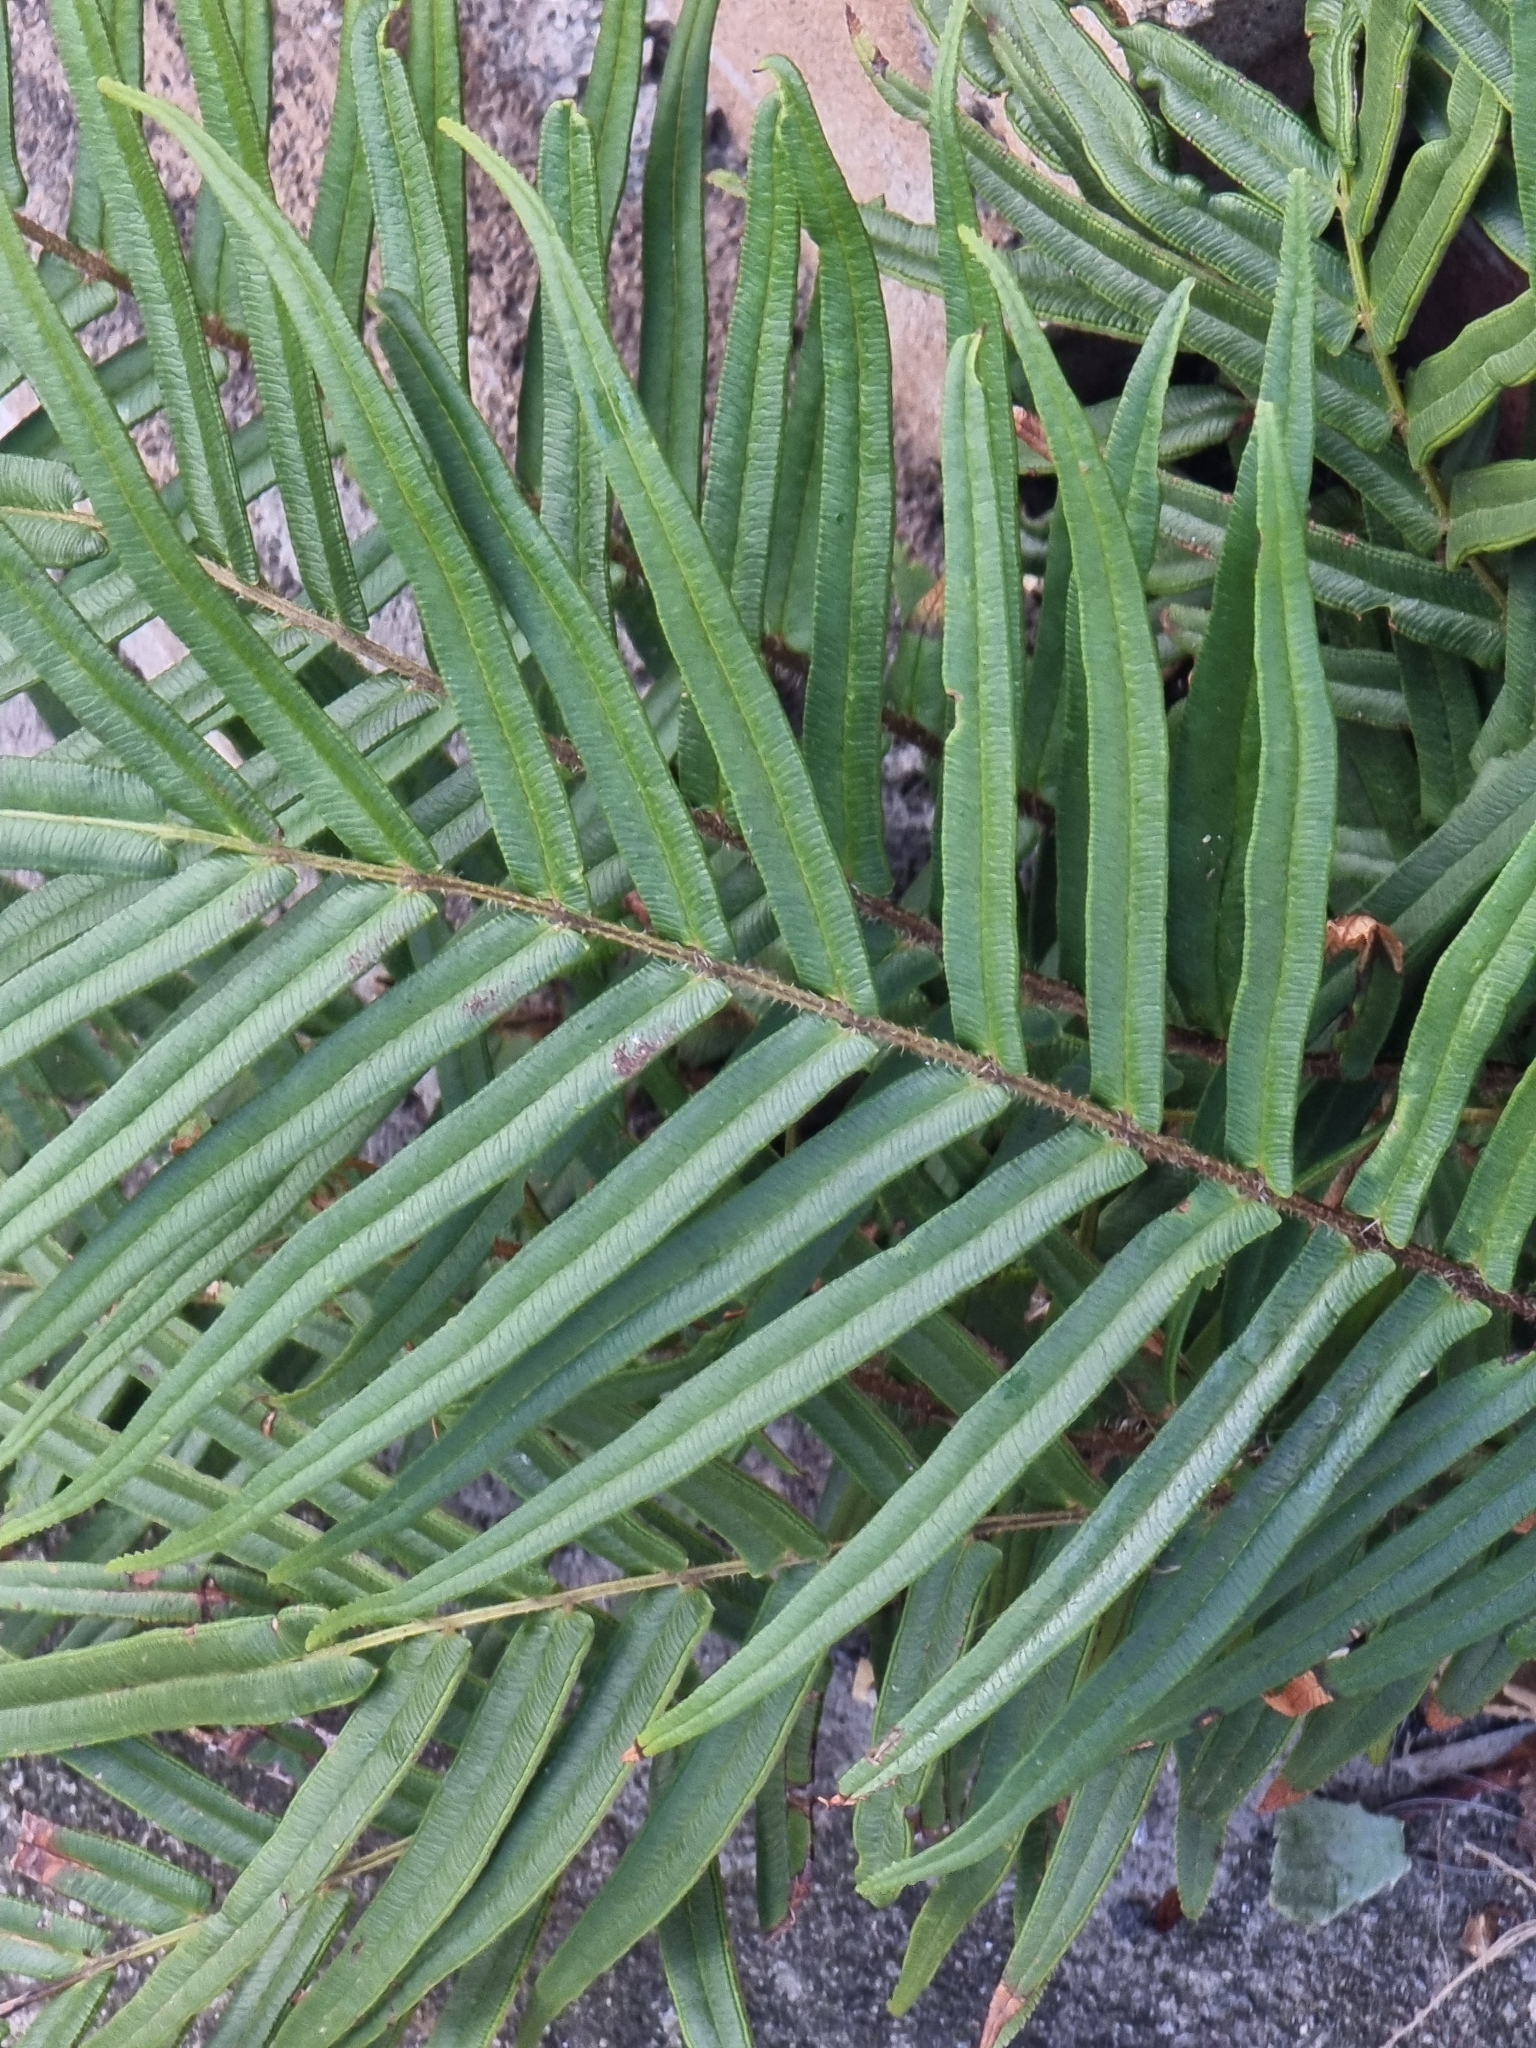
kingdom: Plantae
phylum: Tracheophyta
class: Polypodiopsida
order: Polypodiales
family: Pteridaceae
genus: Pteris
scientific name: Pteris vittata
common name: Ladder brake
